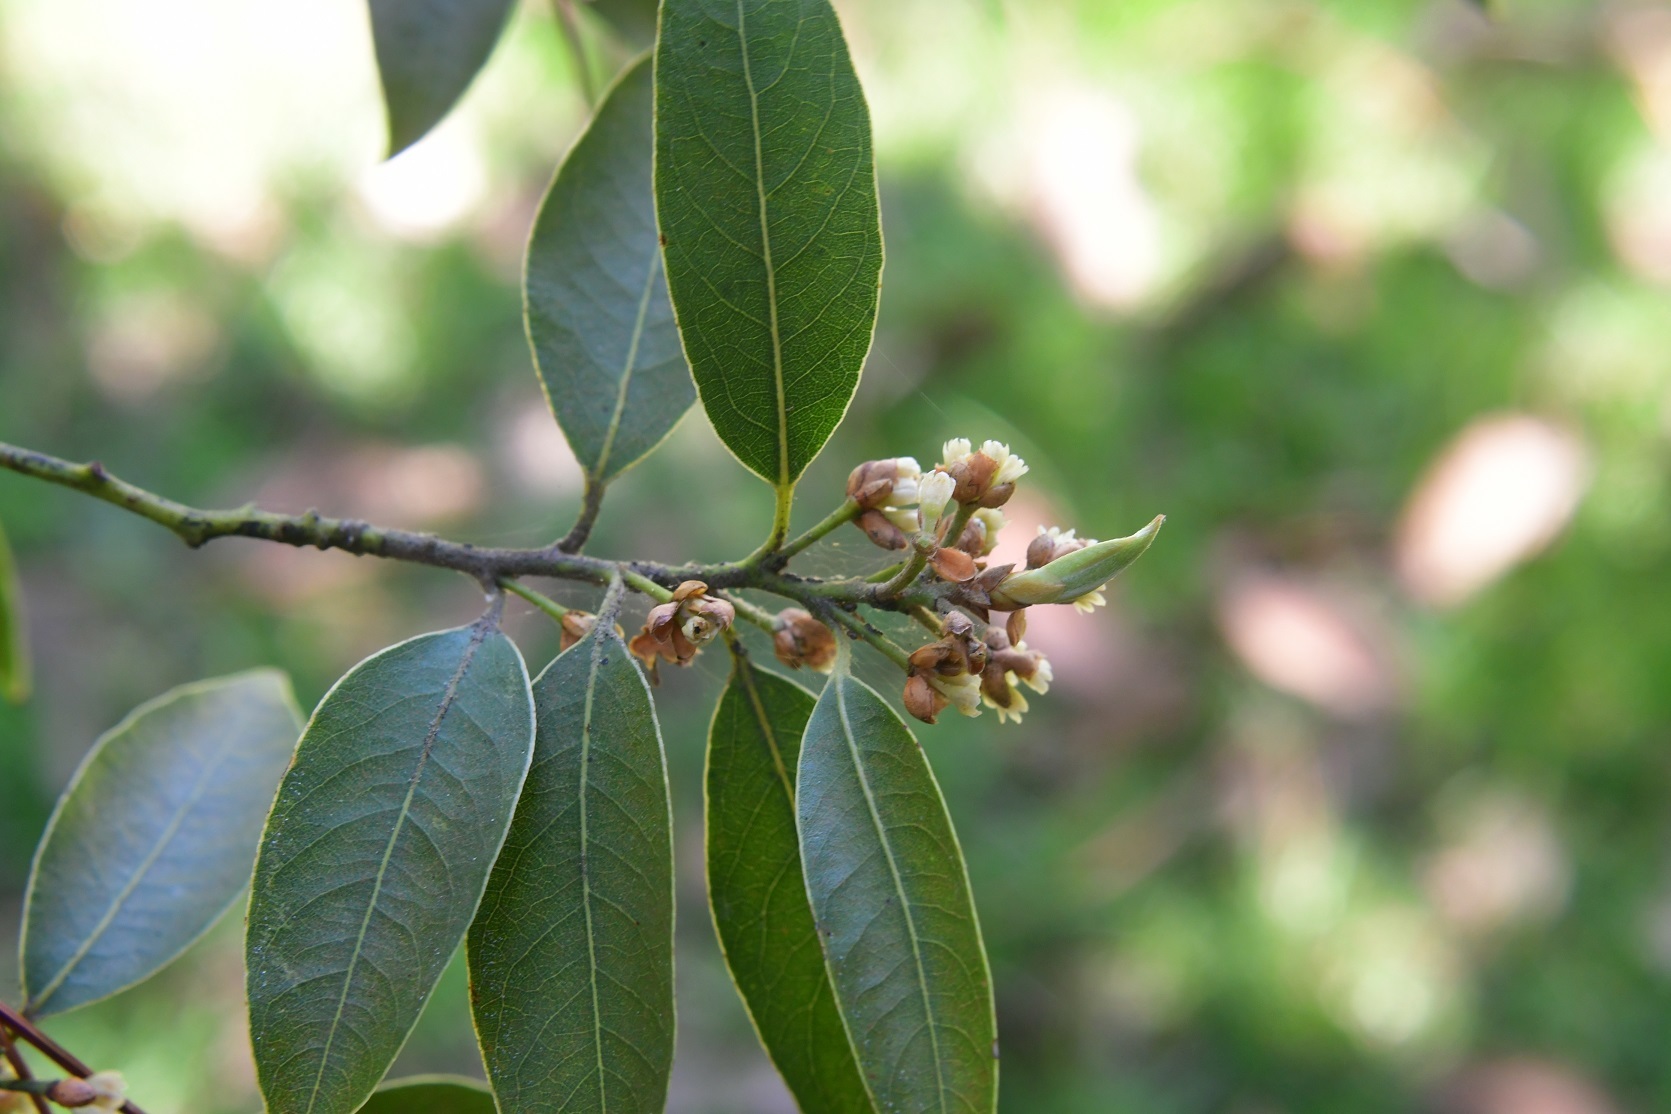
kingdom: Plantae
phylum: Tracheophyta
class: Magnoliopsida
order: Laurales
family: Lauraceae
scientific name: Lauraceae
